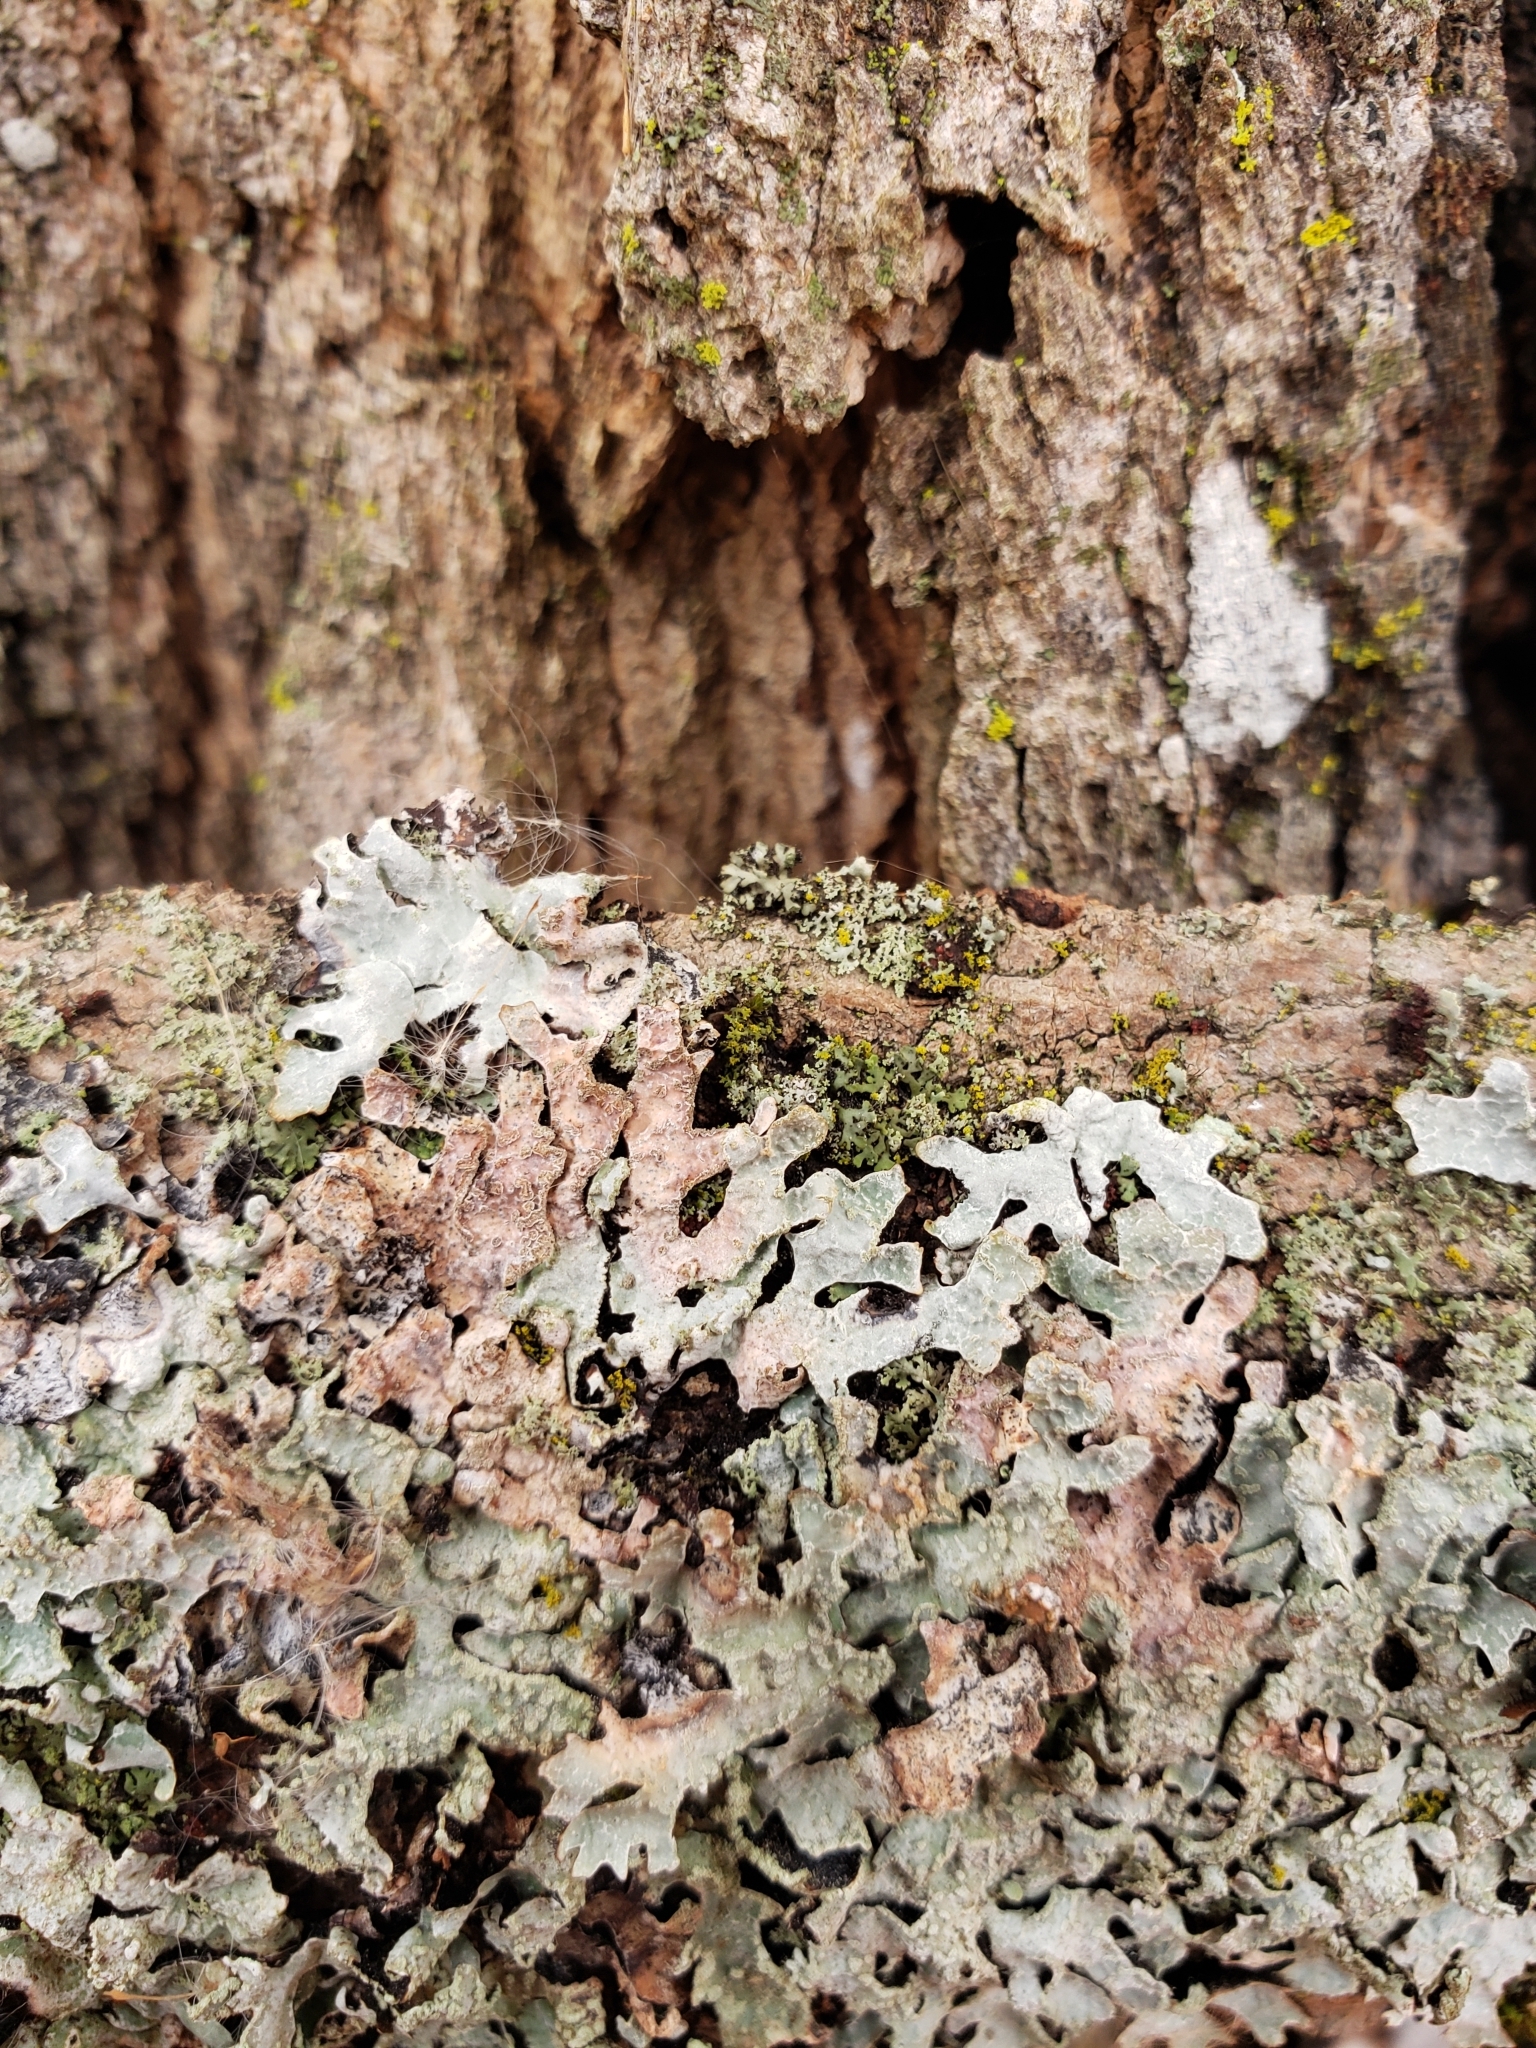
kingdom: Fungi
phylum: Ascomycota
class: Lecanoromycetes
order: Lecanorales
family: Parmeliaceae
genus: Parmelia
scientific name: Parmelia sulcata
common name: Netted shield lichen
